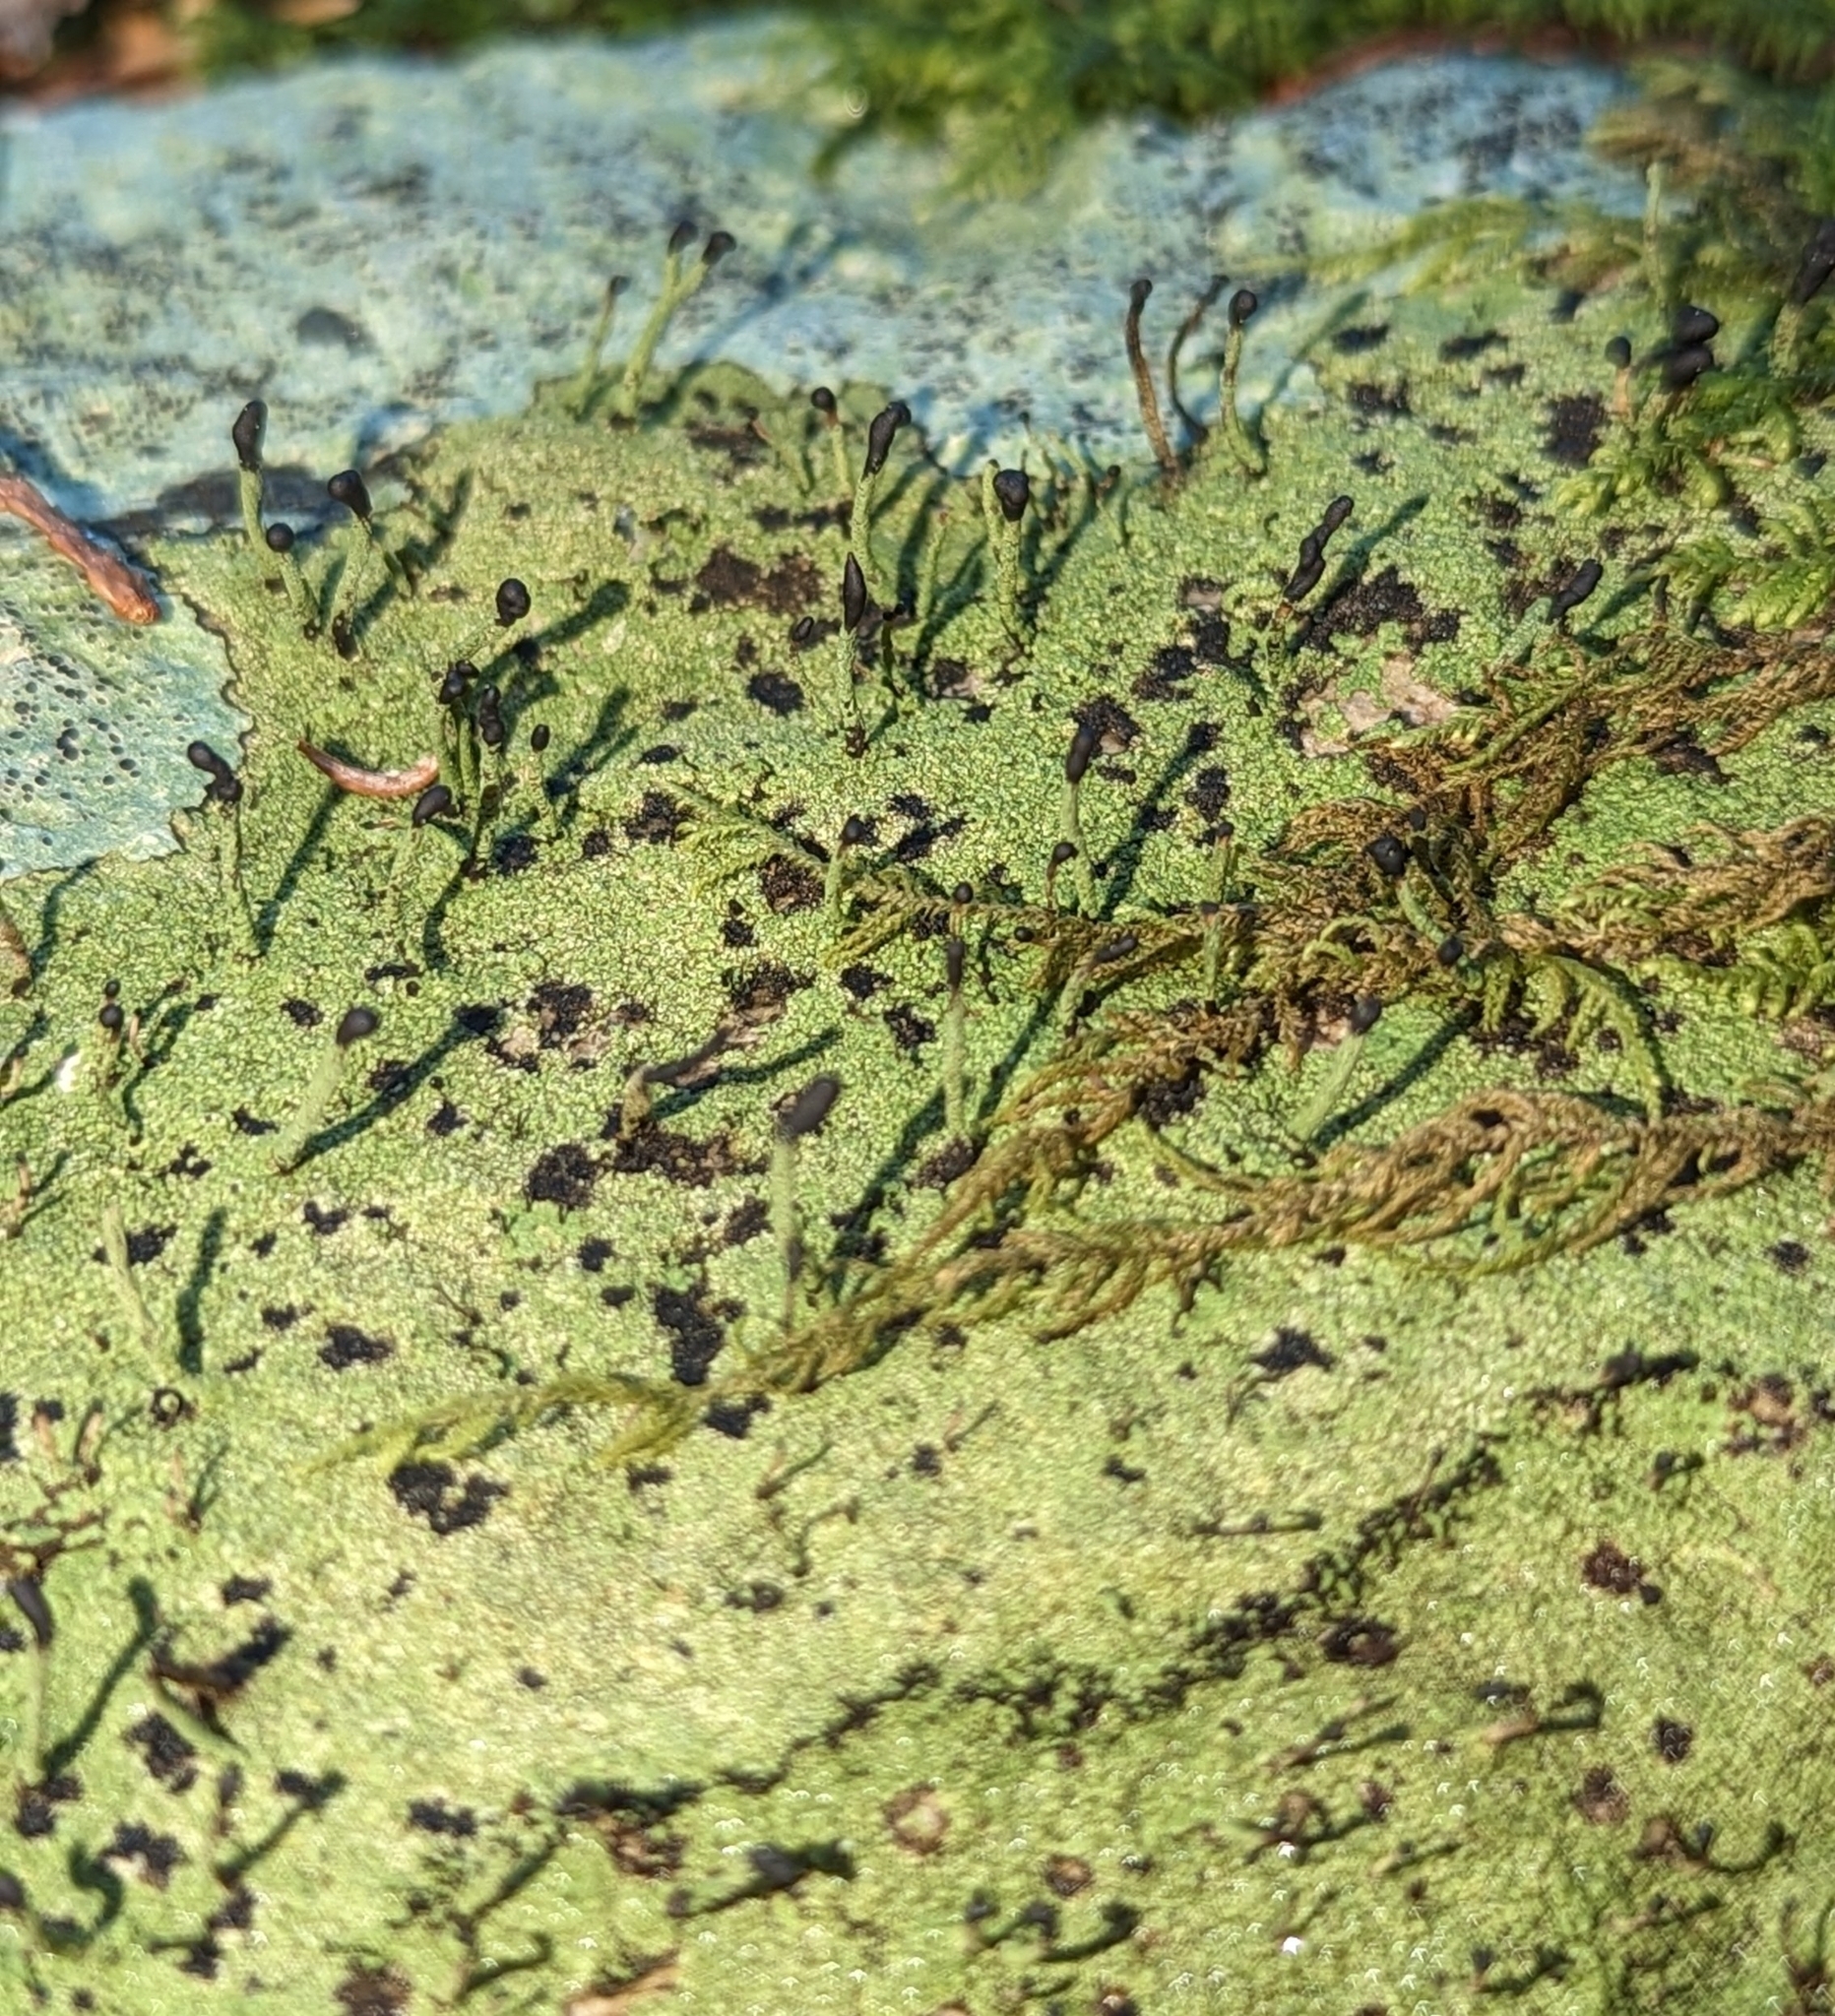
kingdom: Fungi
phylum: Ascomycota
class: Lecanoromycetes
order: Lecanorales
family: Cladoniaceae
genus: Pilophorus
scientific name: Pilophorus clavatus
